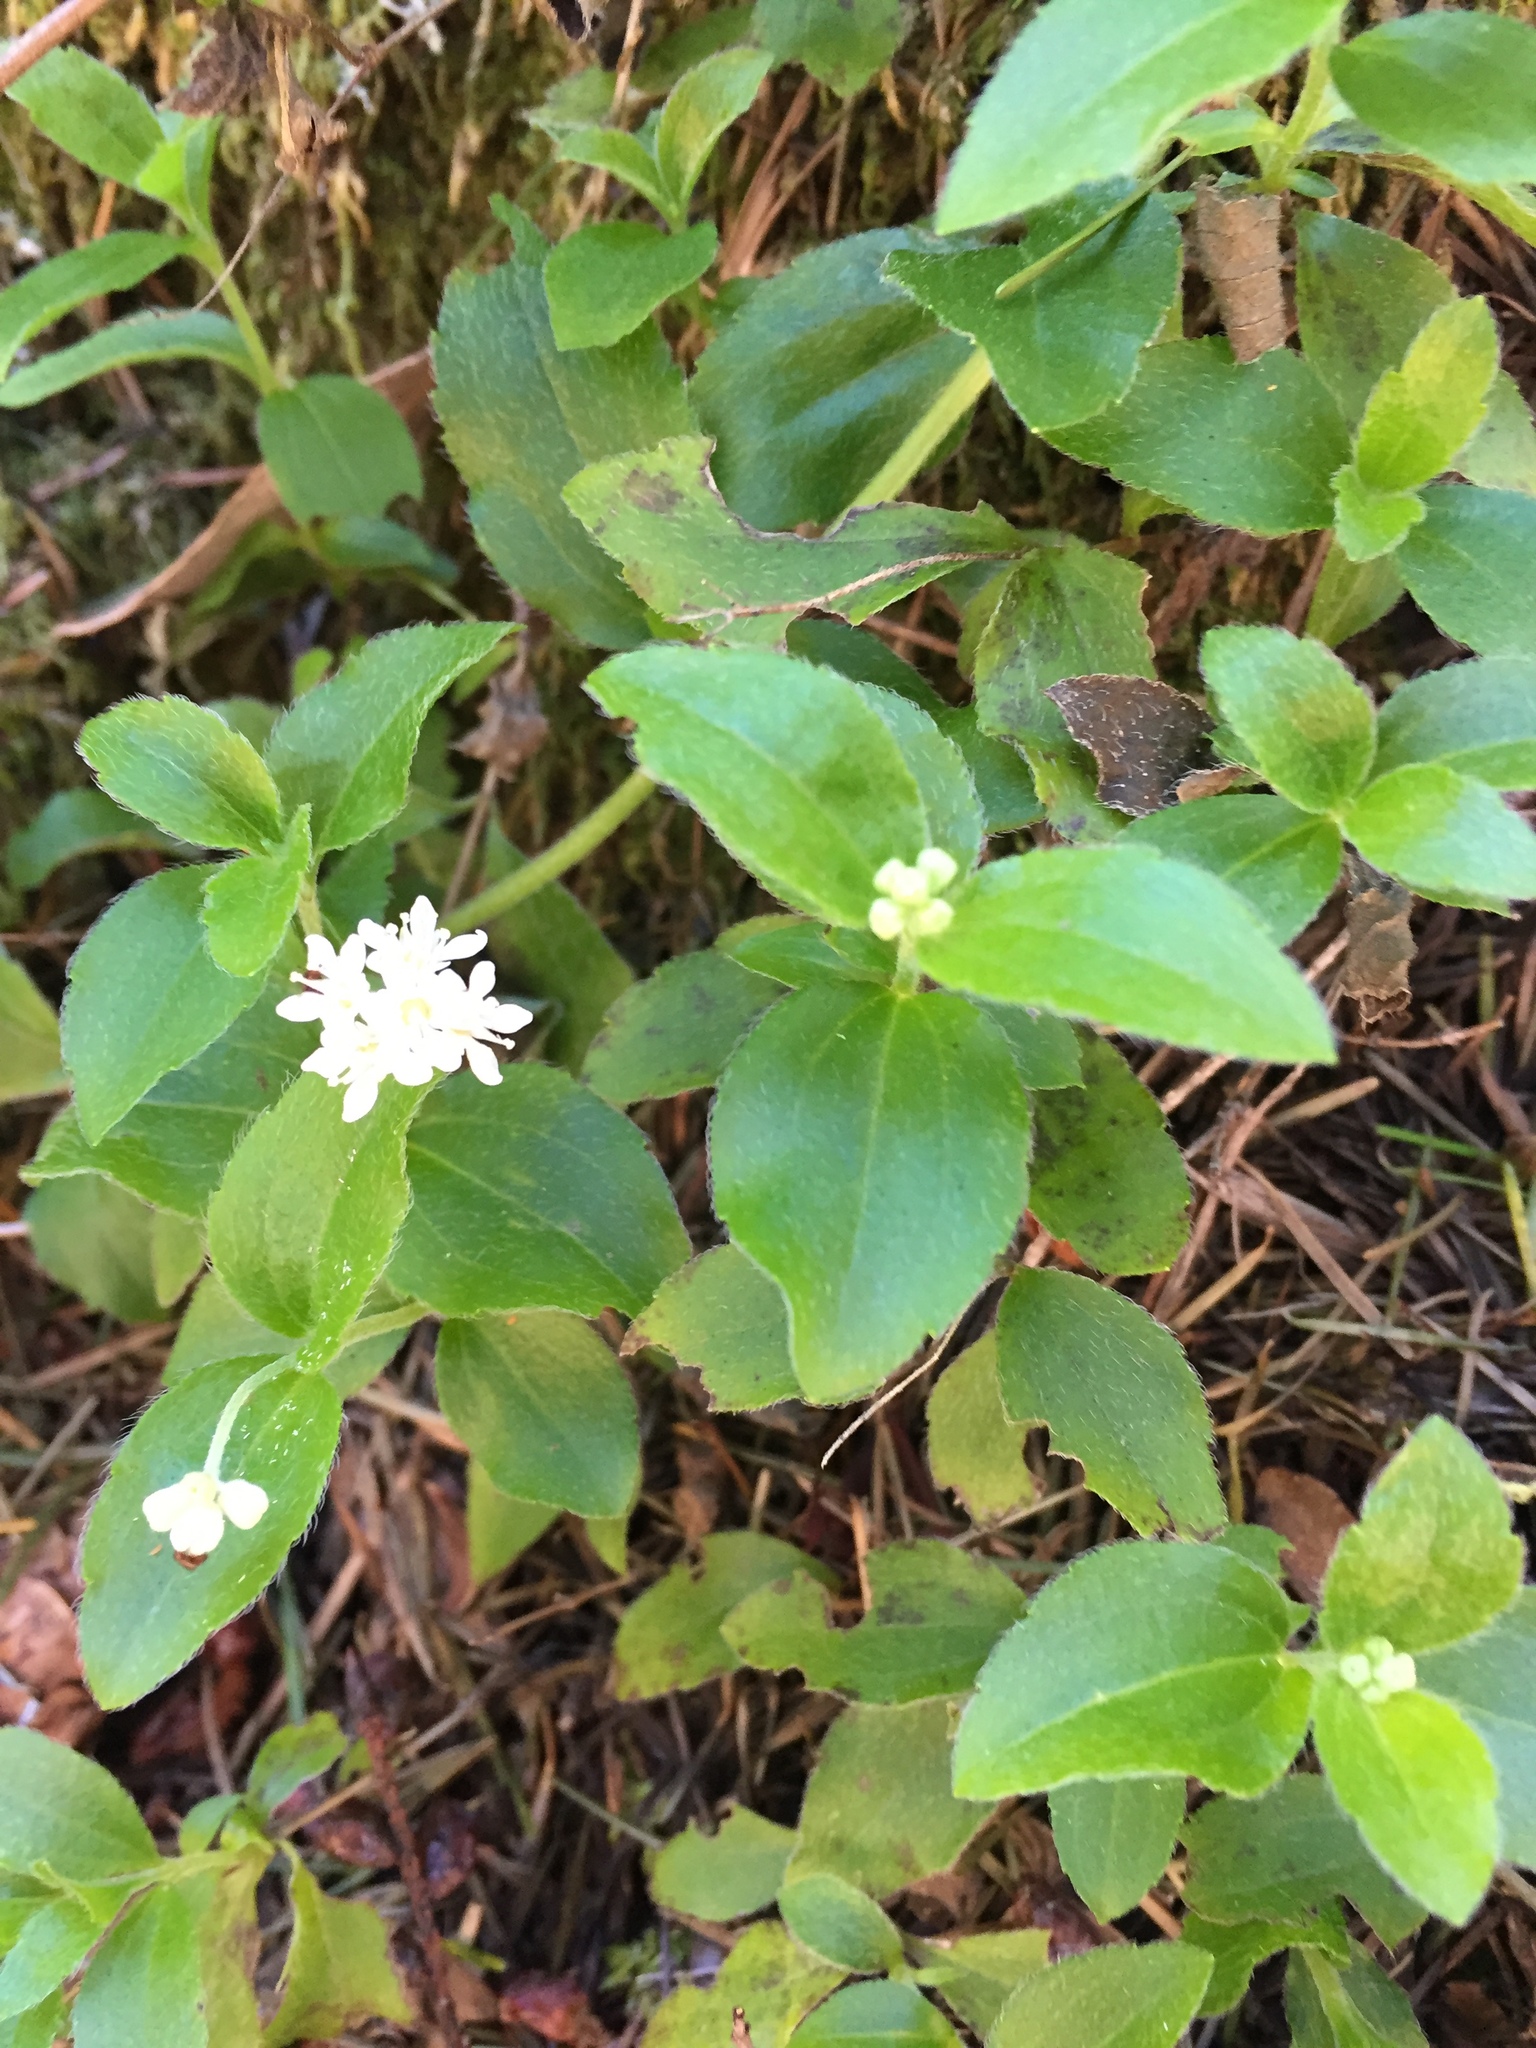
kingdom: Plantae
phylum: Tracheophyta
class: Magnoliopsida
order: Cornales
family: Hydrangeaceae
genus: Whipplea
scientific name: Whipplea modesta
